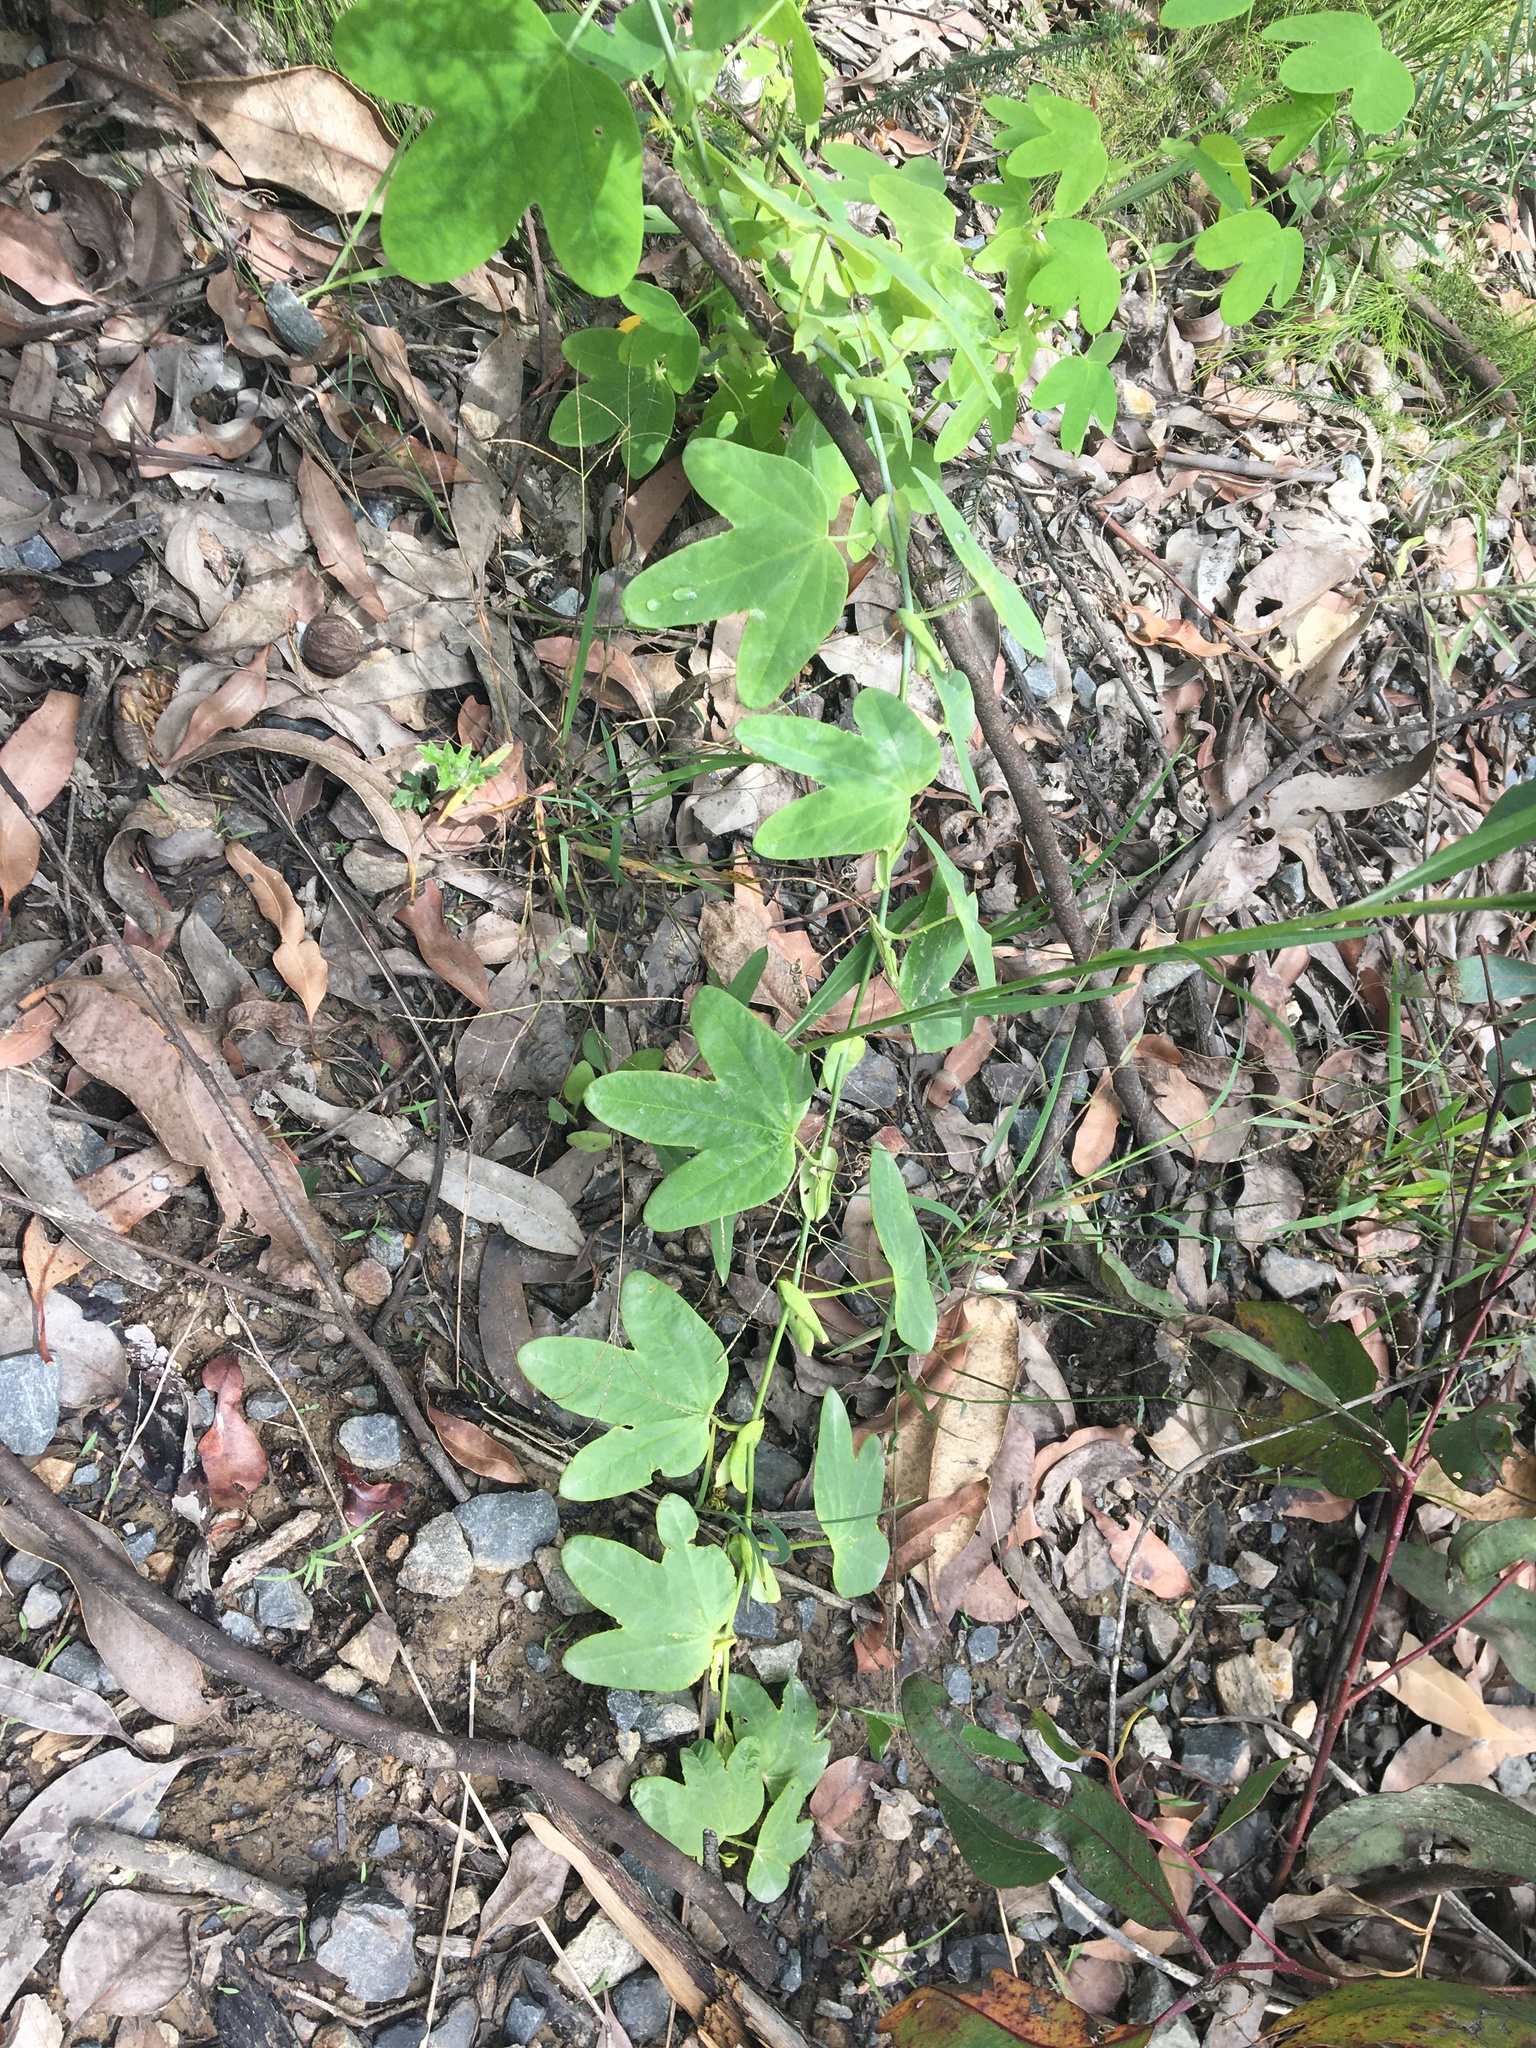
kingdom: Plantae
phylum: Tracheophyta
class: Magnoliopsida
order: Malpighiales
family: Passifloraceae
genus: Passiflora
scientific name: Passiflora subpeltata
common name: White passionflower
